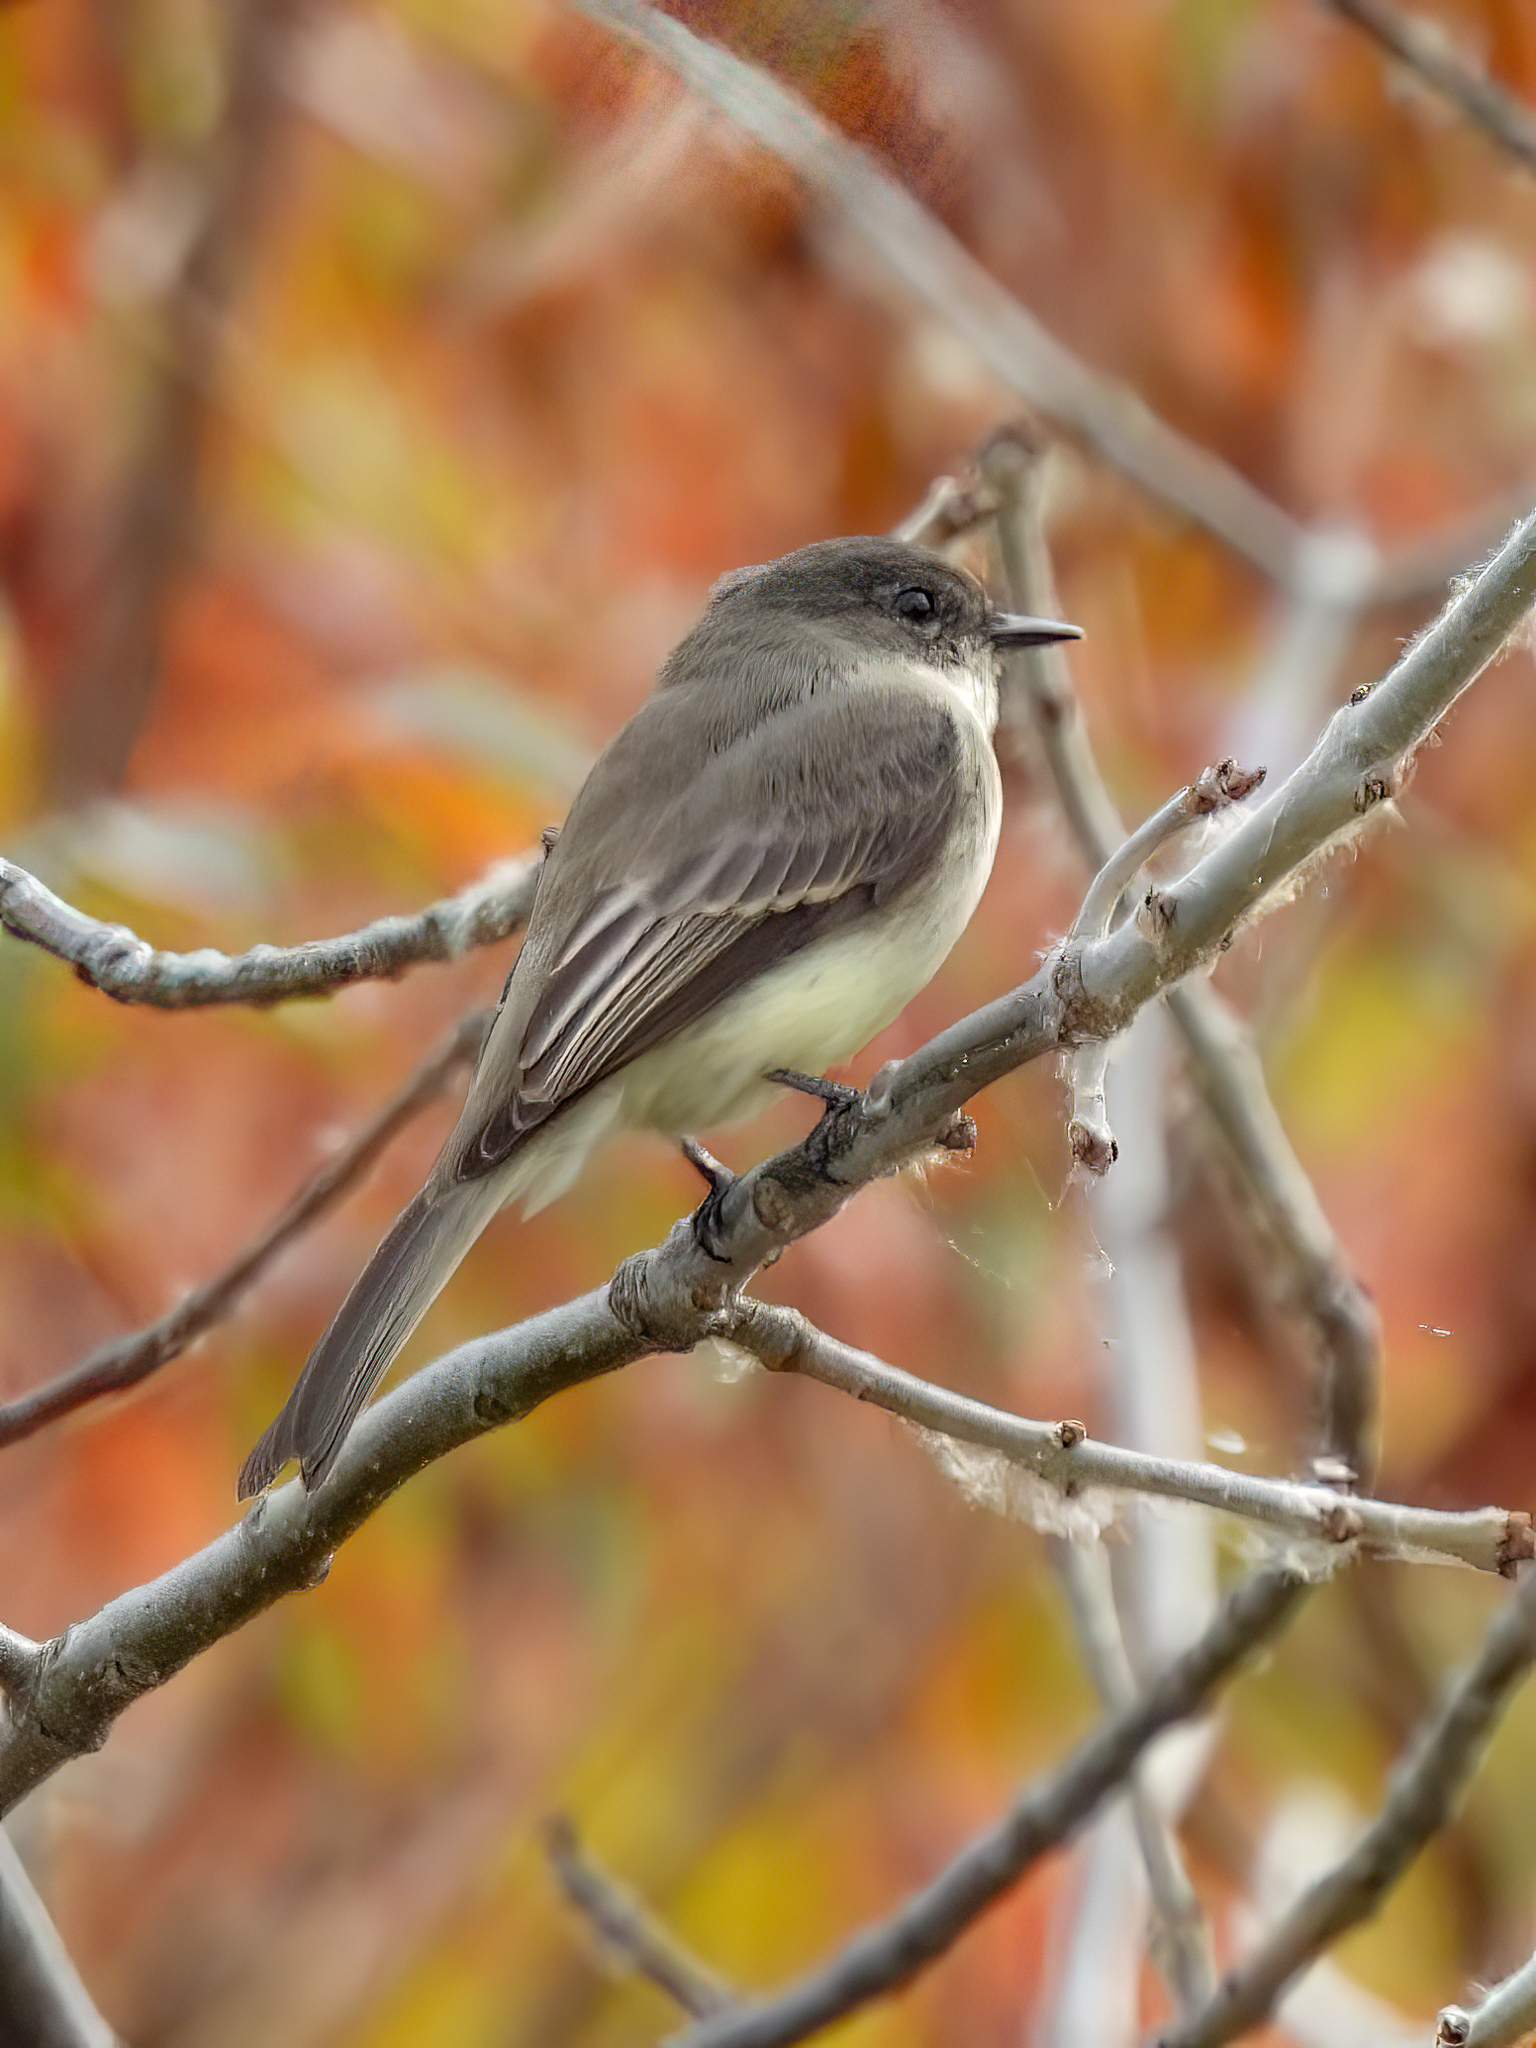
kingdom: Animalia
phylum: Chordata
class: Aves
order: Passeriformes
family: Tyrannidae
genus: Sayornis
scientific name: Sayornis phoebe
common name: Eastern phoebe
